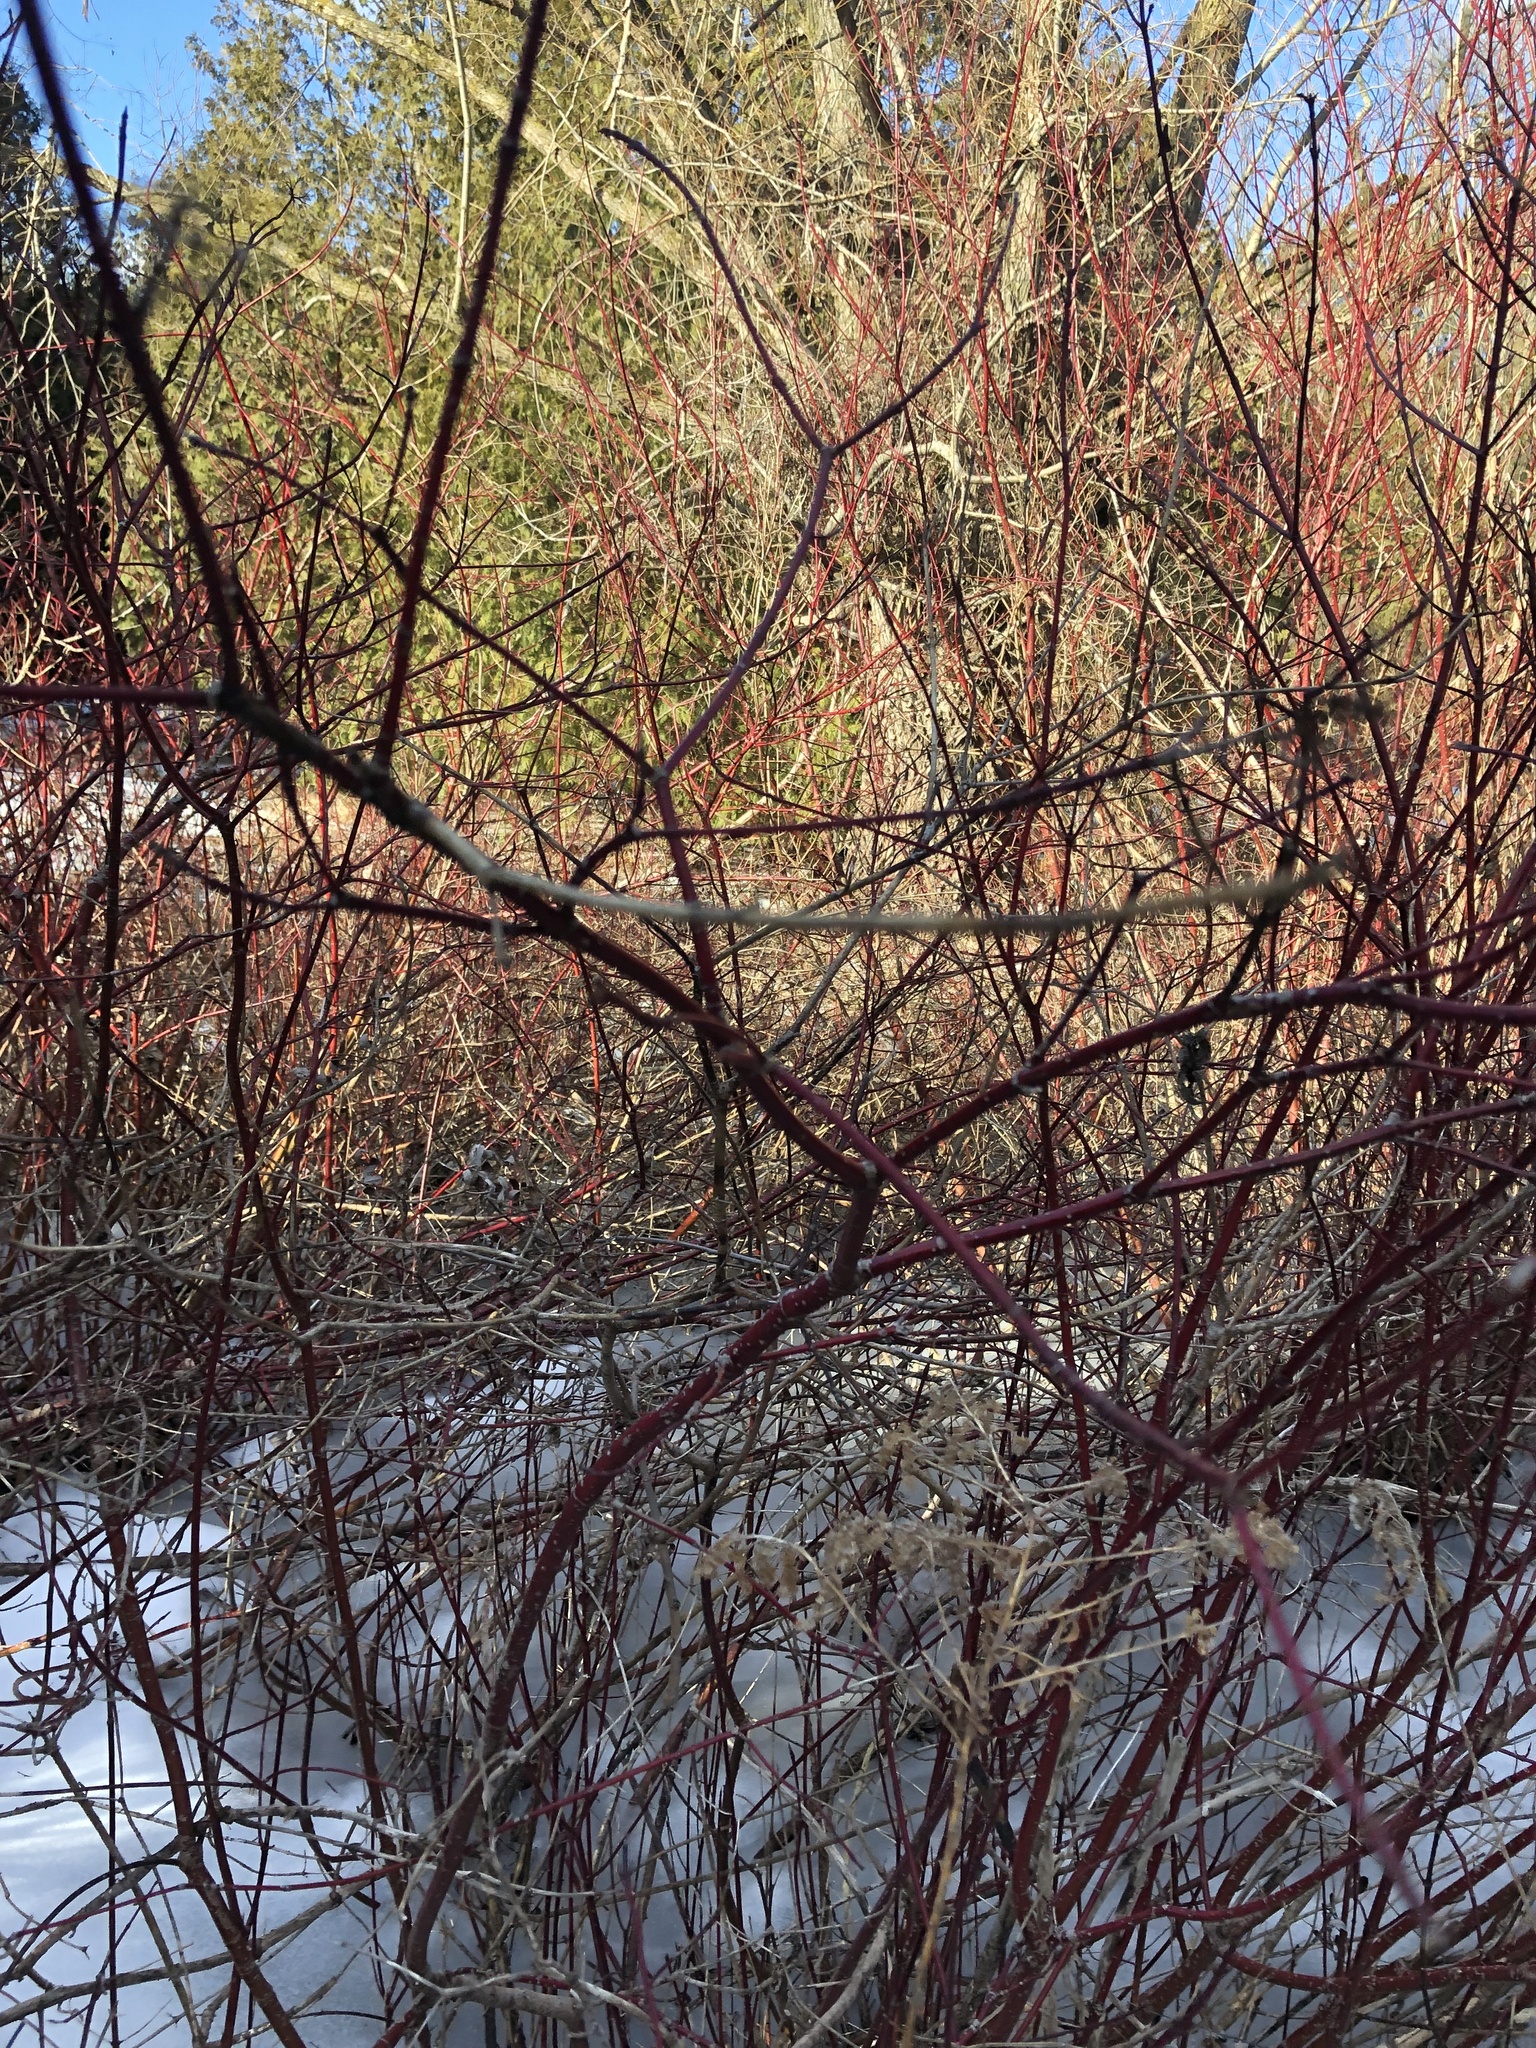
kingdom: Plantae
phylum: Tracheophyta
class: Magnoliopsida
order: Cornales
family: Cornaceae
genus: Cornus
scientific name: Cornus sericea
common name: Red-osier dogwood
